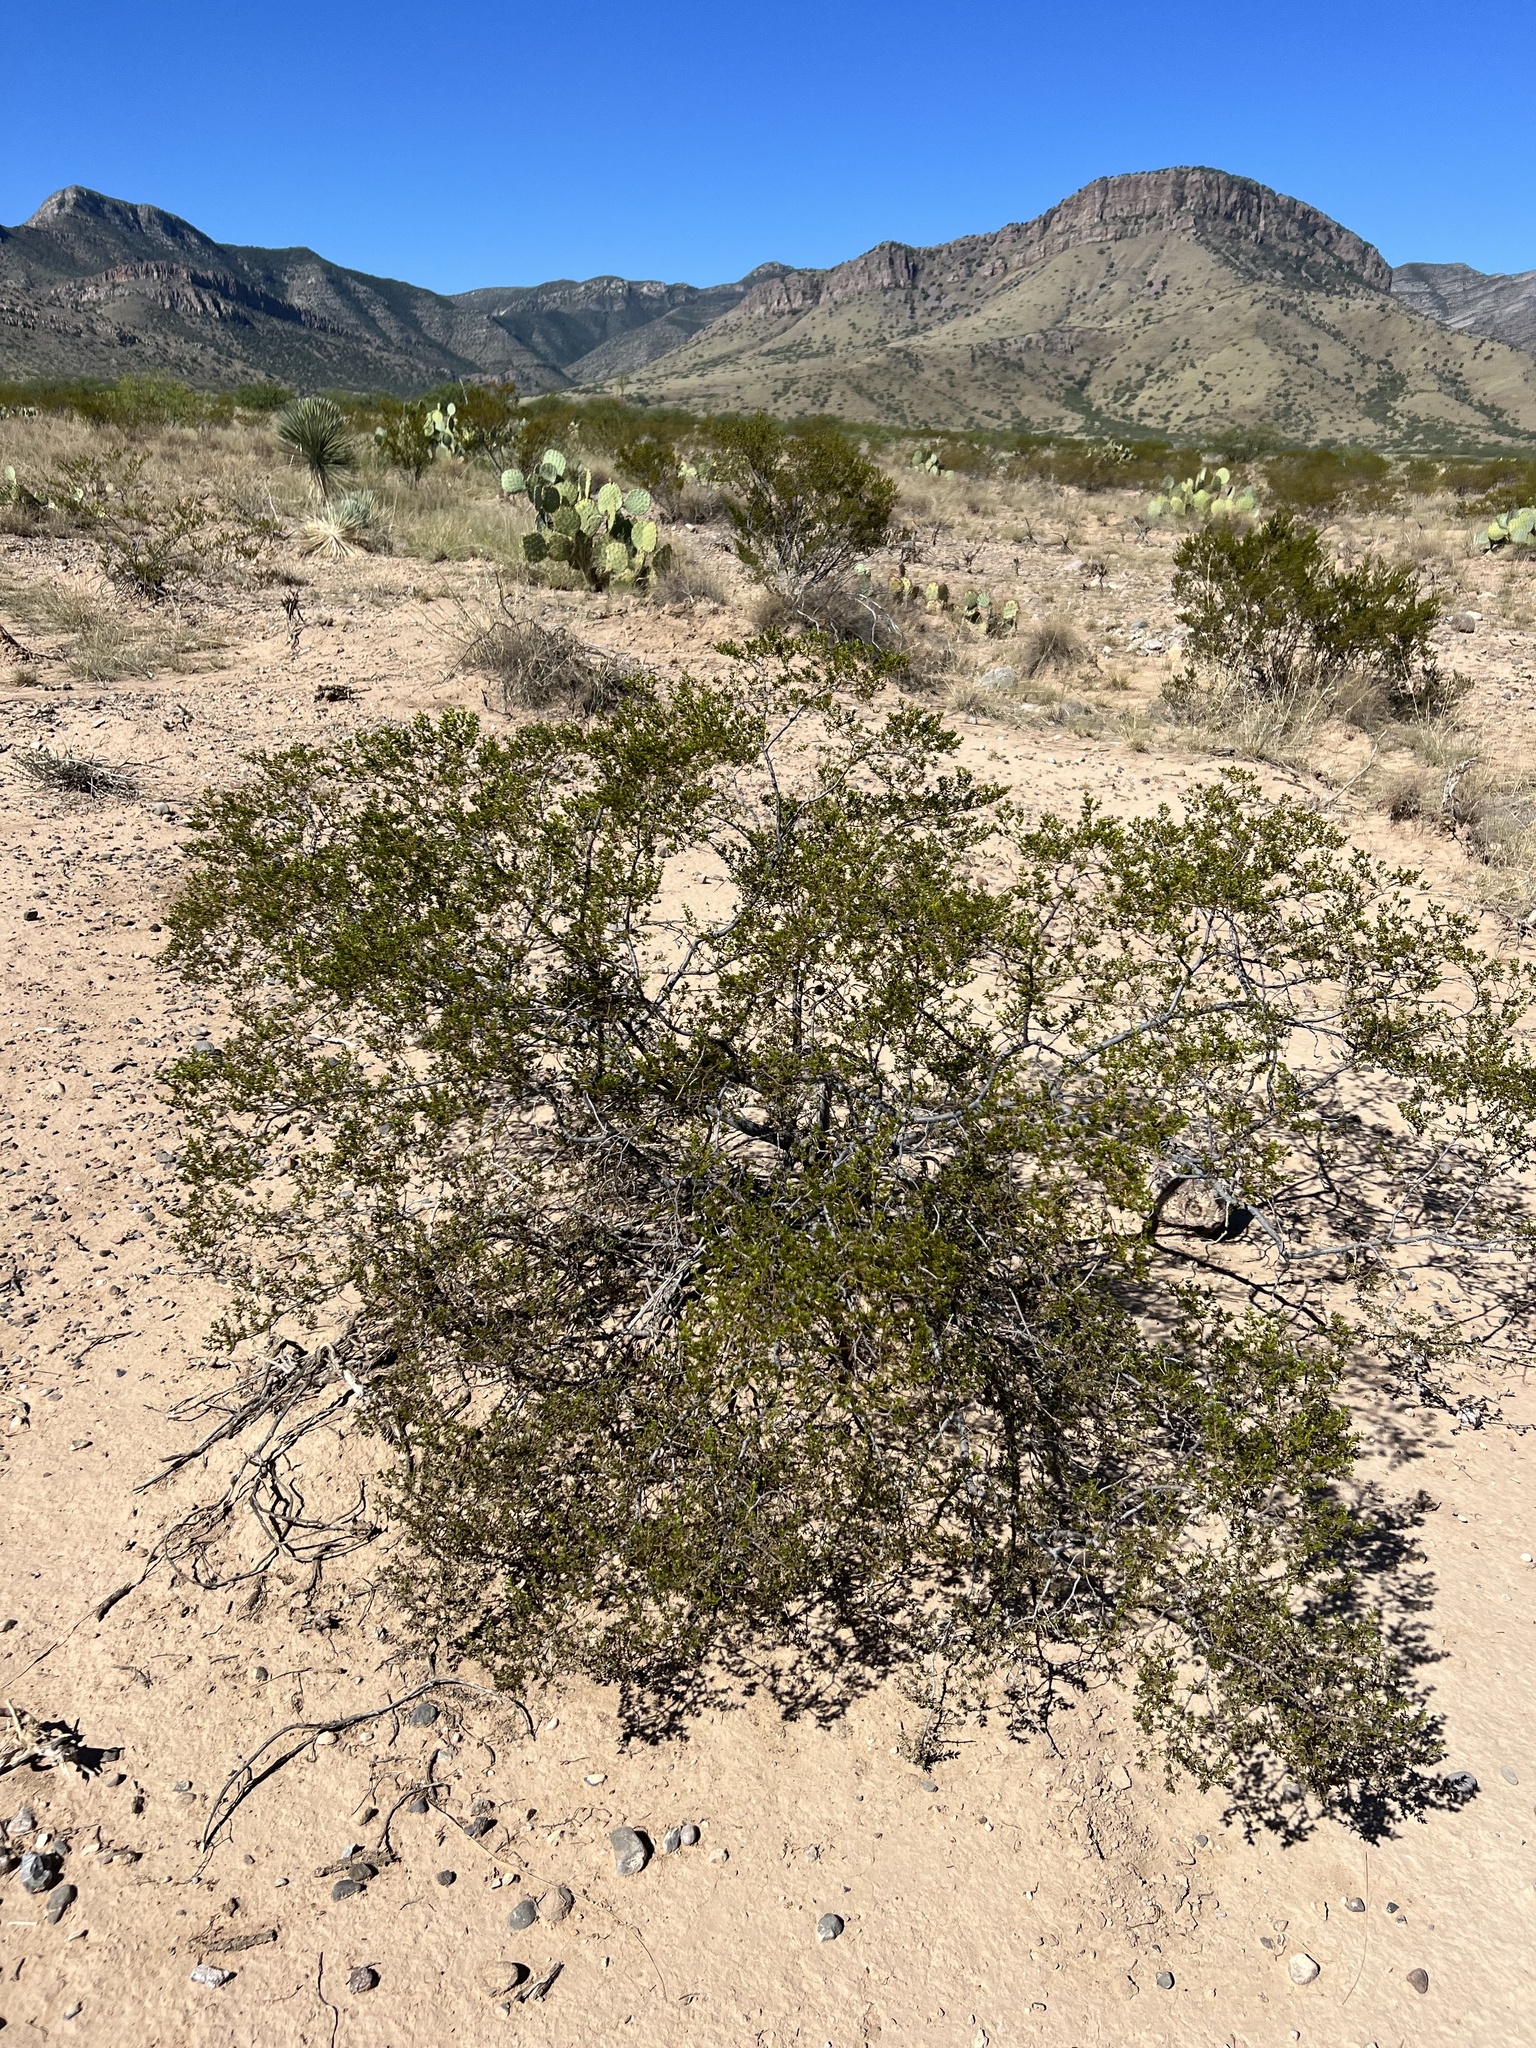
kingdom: Plantae
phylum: Tracheophyta
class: Magnoliopsida
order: Zygophyllales
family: Zygophyllaceae
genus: Larrea
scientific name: Larrea tridentata
